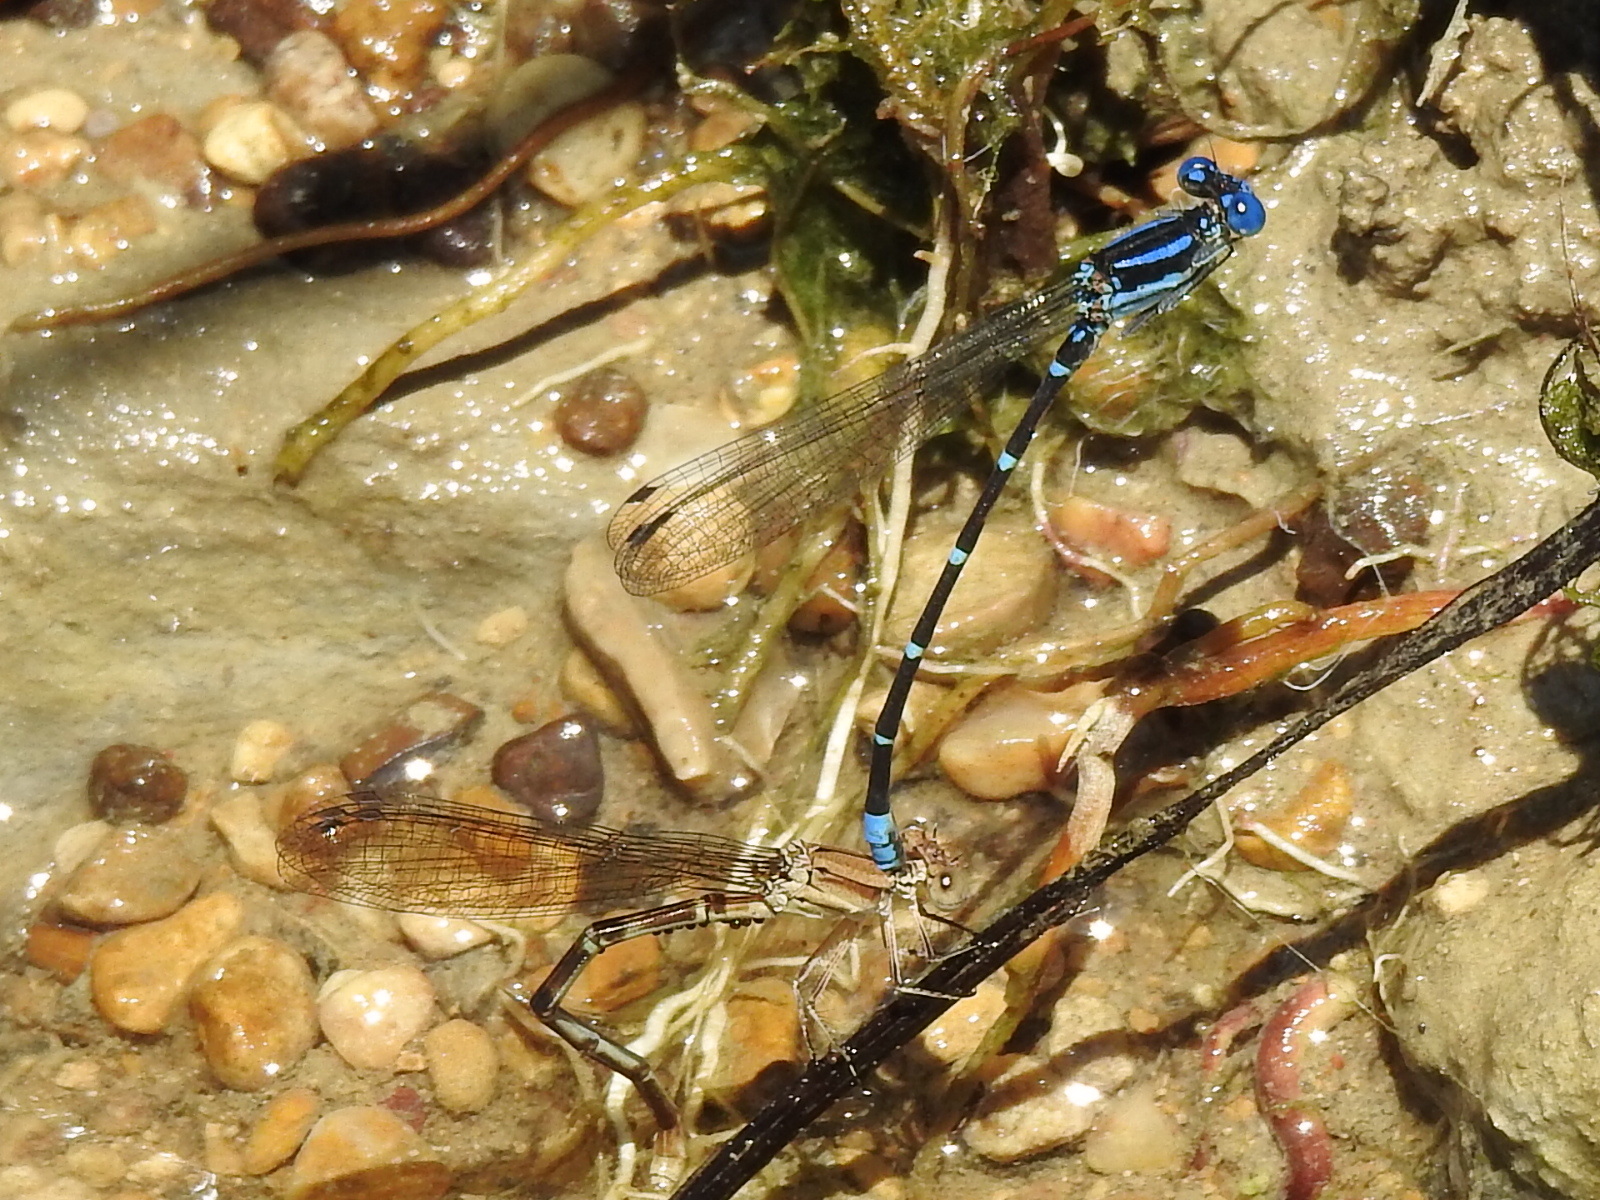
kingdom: Animalia
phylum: Arthropoda
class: Insecta
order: Odonata
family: Coenagrionidae
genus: Argia
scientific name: Argia sedula
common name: Blue-ringed dancer
